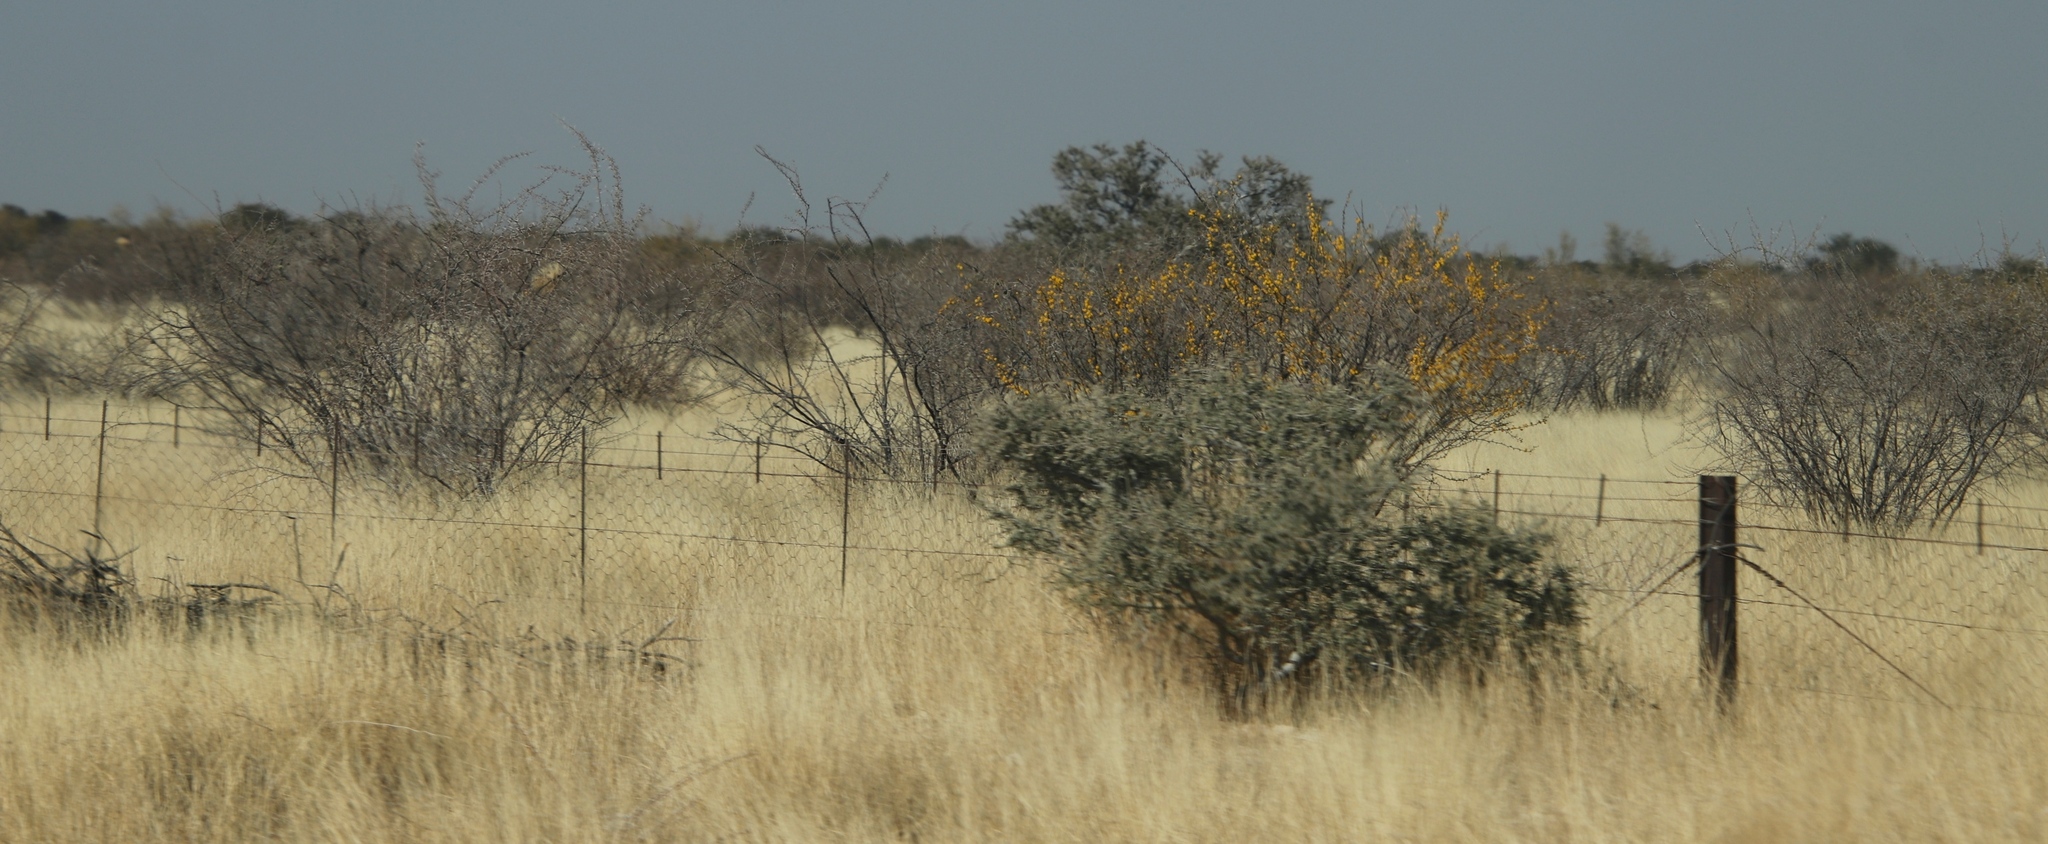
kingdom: Plantae
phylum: Tracheophyta
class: Magnoliopsida
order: Fabales
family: Fabaceae
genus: Vachellia
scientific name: Vachellia nebrownii
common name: Water acacia
